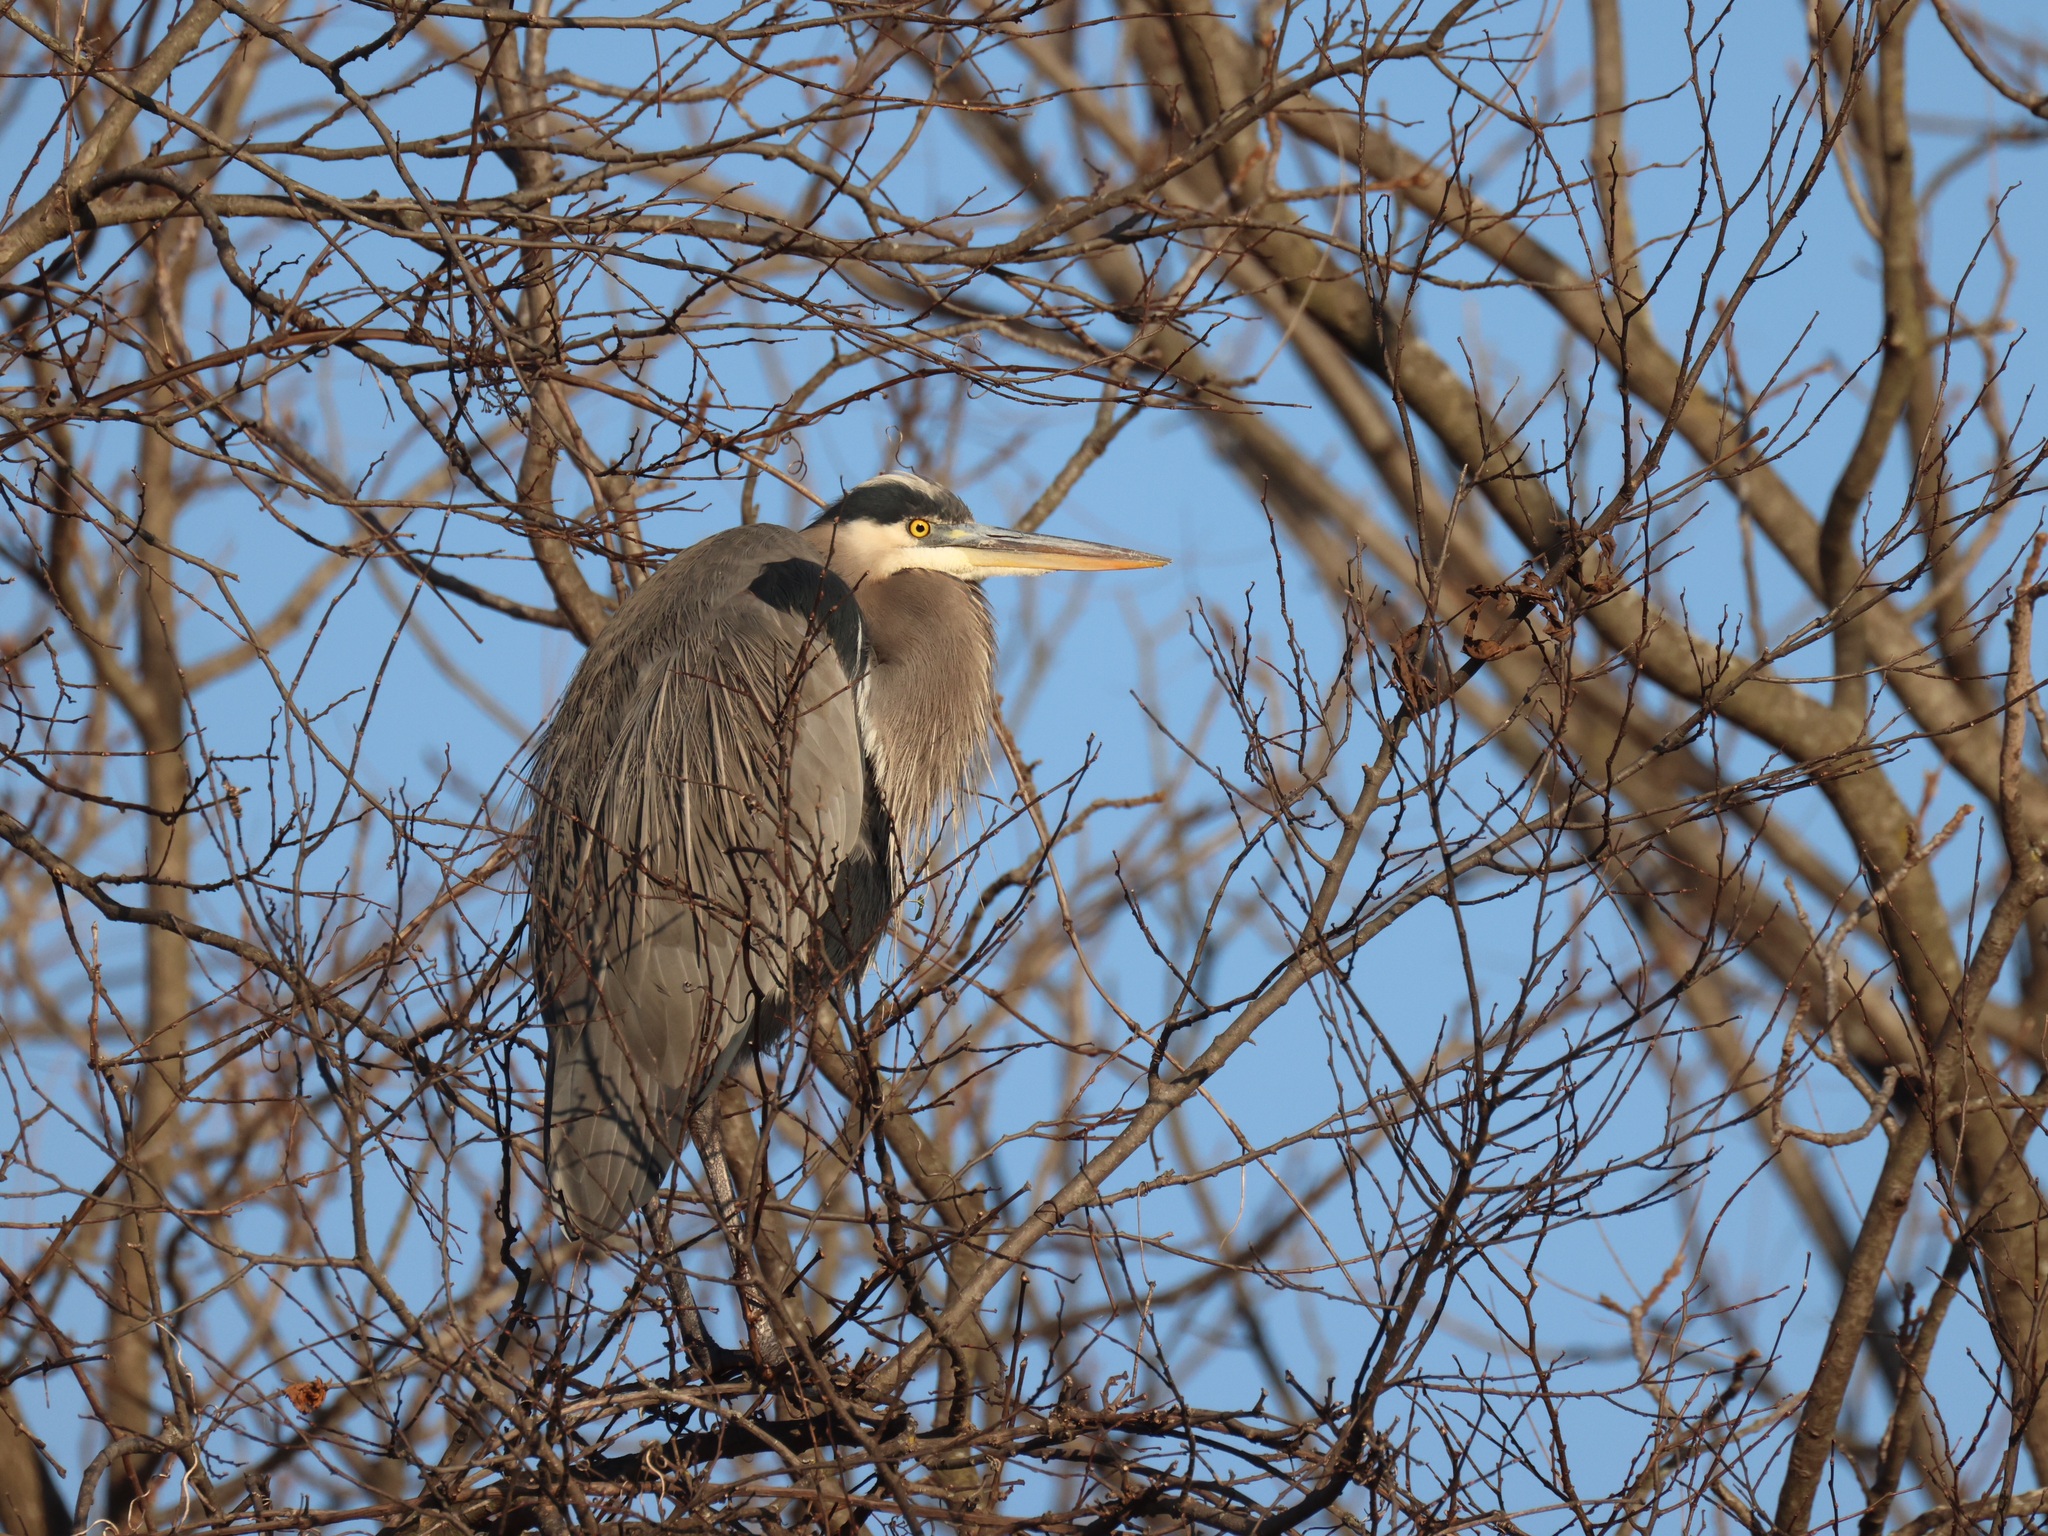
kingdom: Animalia
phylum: Chordata
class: Aves
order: Pelecaniformes
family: Ardeidae
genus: Ardea
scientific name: Ardea herodias
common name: Great blue heron
